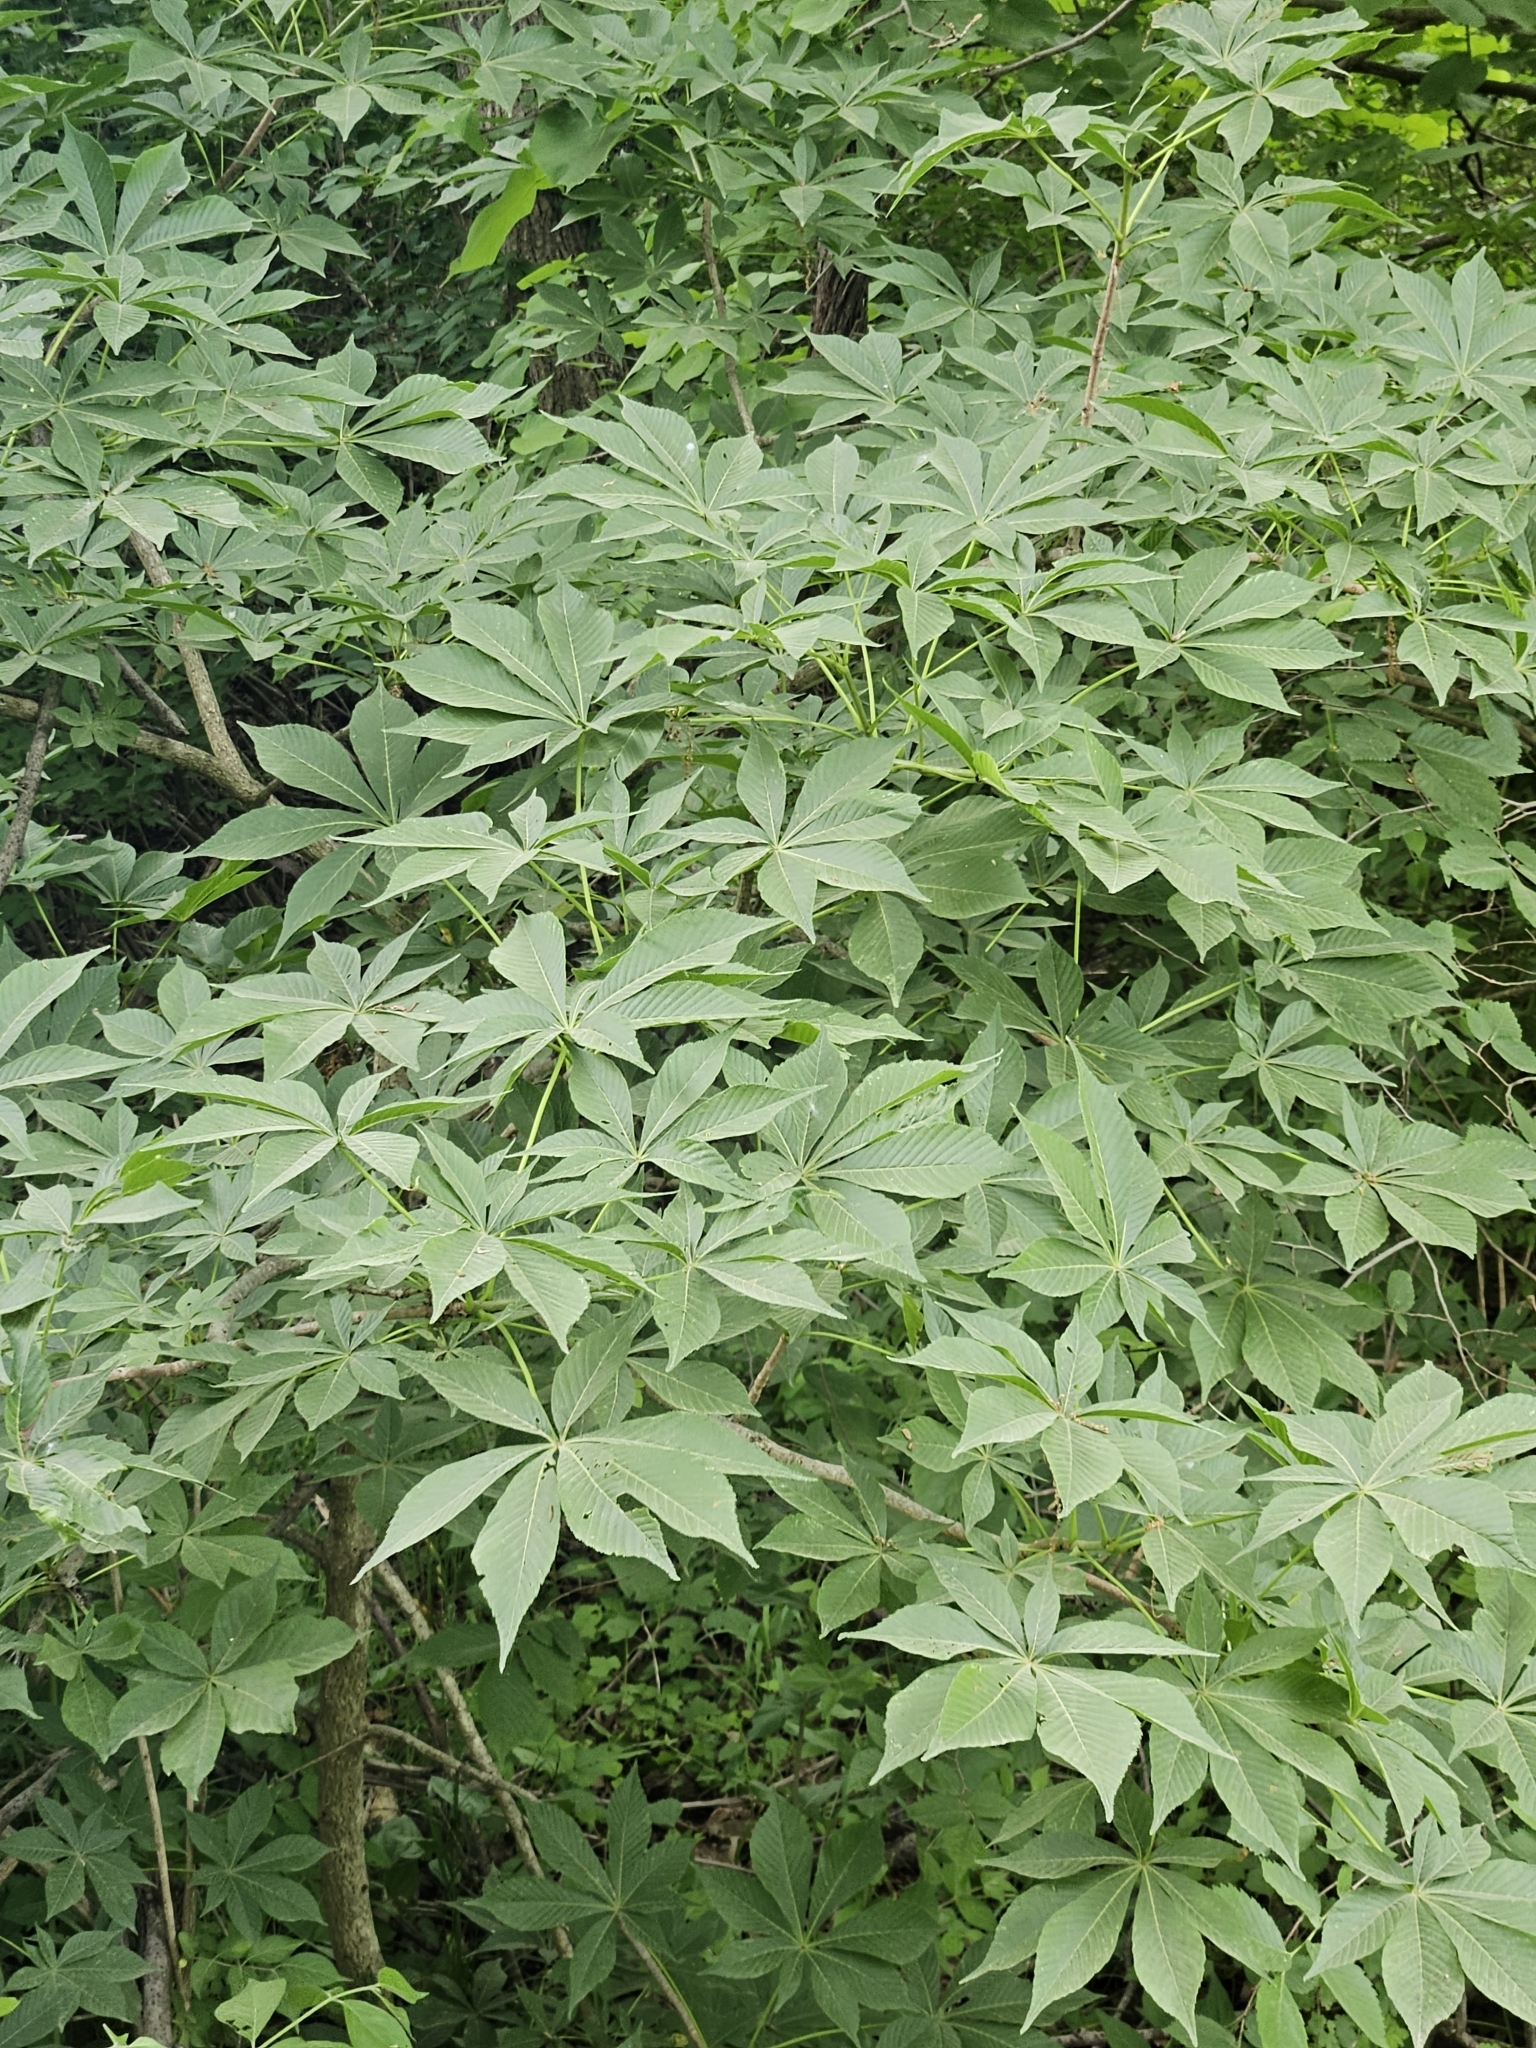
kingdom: Plantae
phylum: Tracheophyta
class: Magnoliopsida
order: Sapindales
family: Sapindaceae
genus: Aesculus
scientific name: Aesculus glabra
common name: Ohio buckeye
